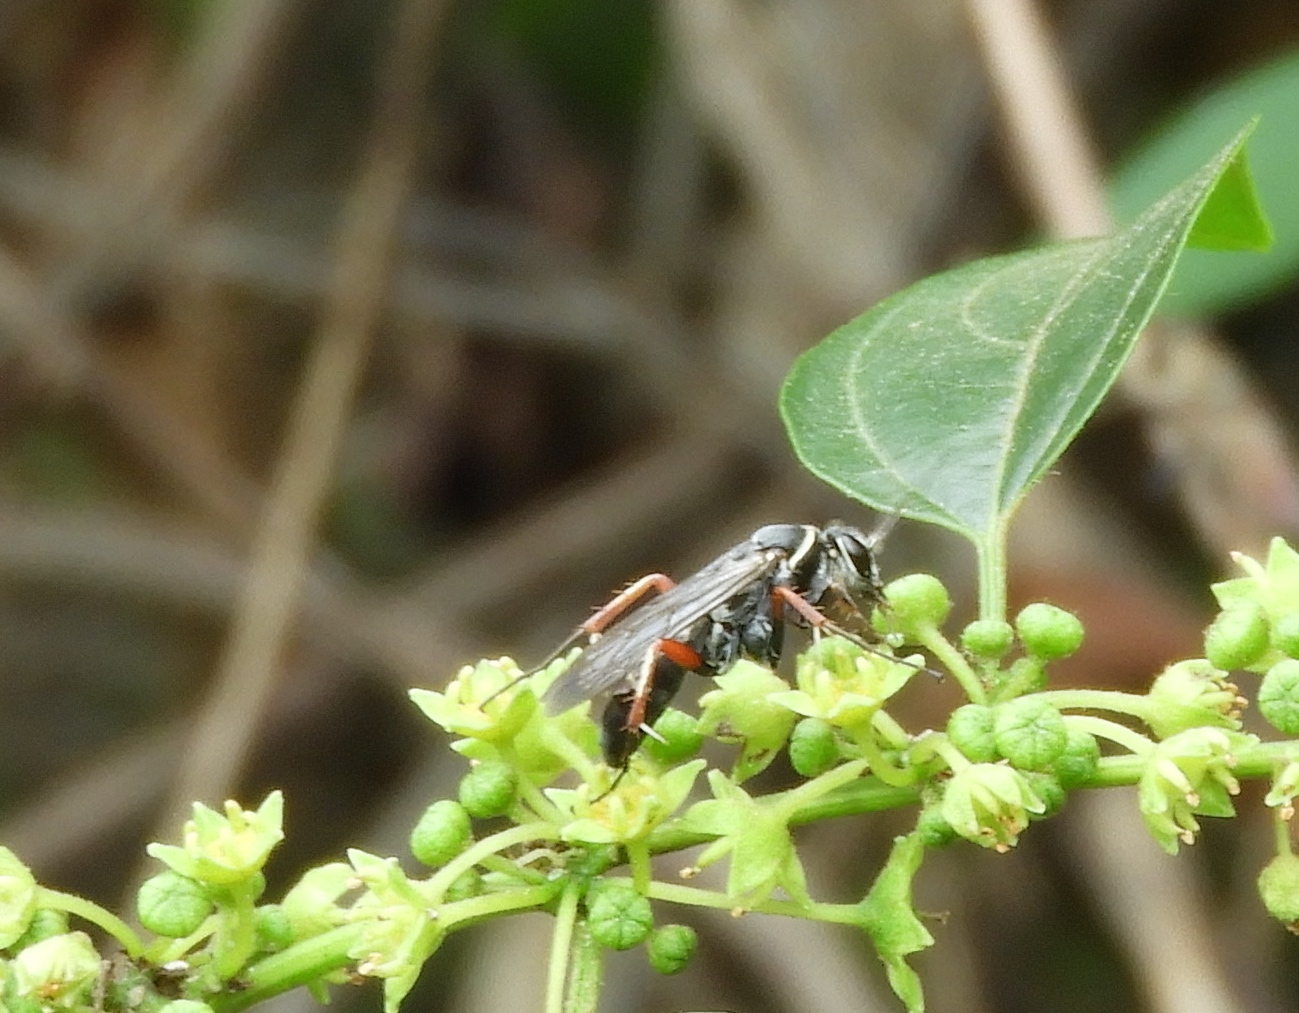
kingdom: Animalia
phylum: Arthropoda
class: Insecta
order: Hymenoptera
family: Pompilidae
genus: Episyron
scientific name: Episyron conterminus
